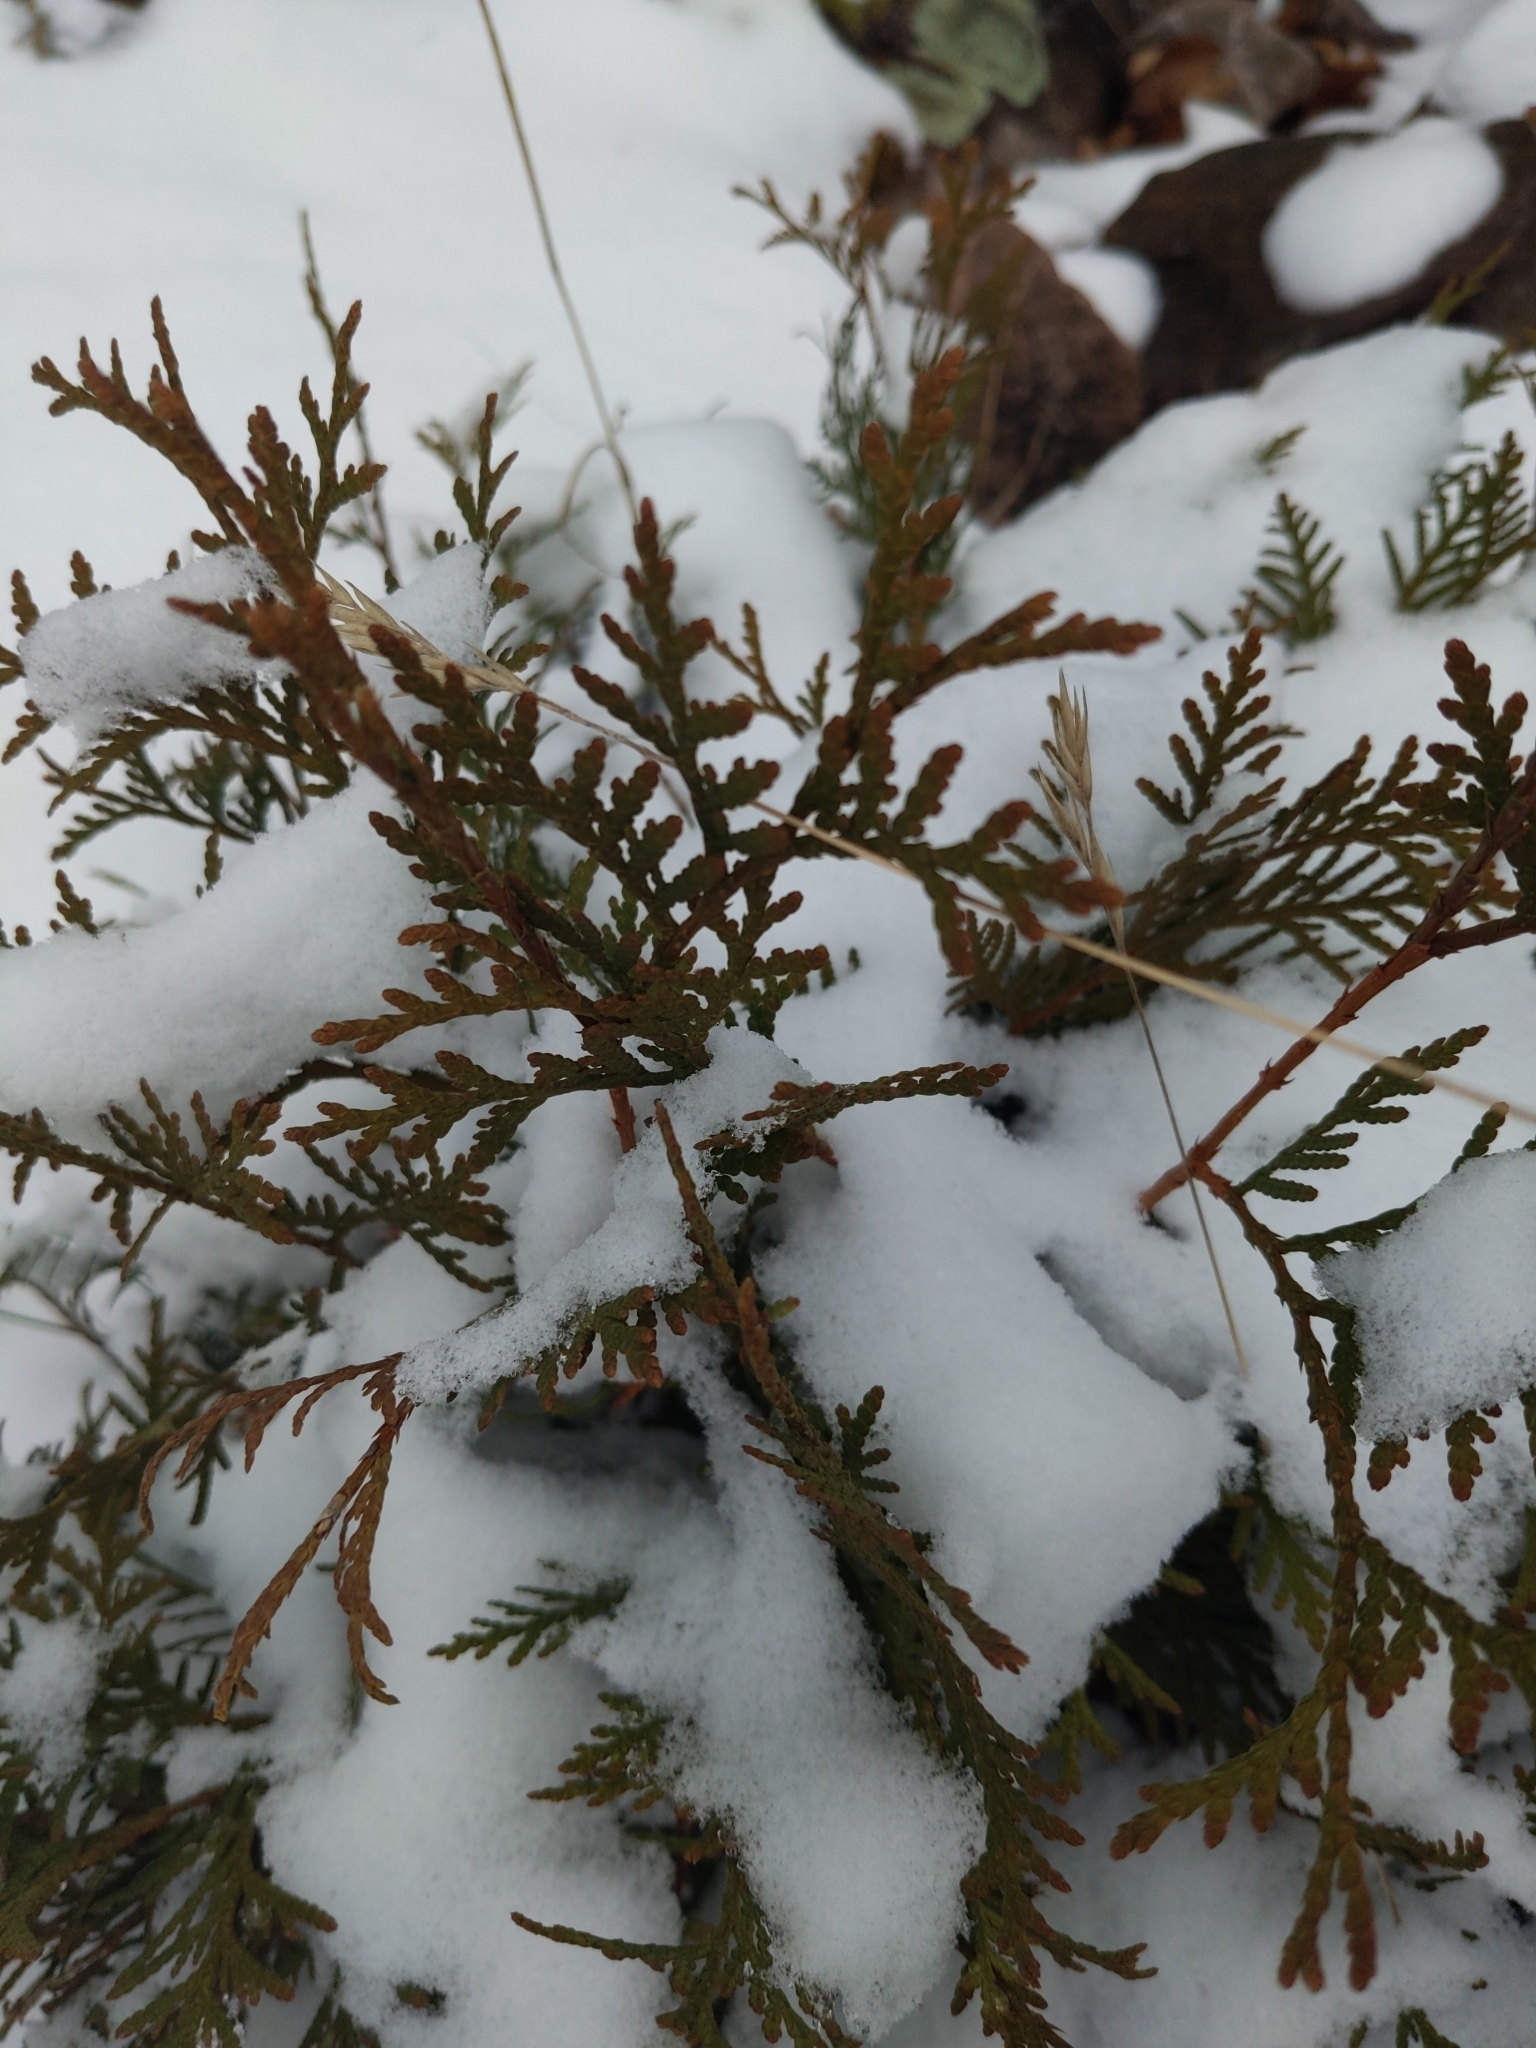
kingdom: Plantae
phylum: Tracheophyta
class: Pinopsida
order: Pinales
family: Cupressaceae
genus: Thuja
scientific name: Thuja occidentalis
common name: Northern white-cedar
